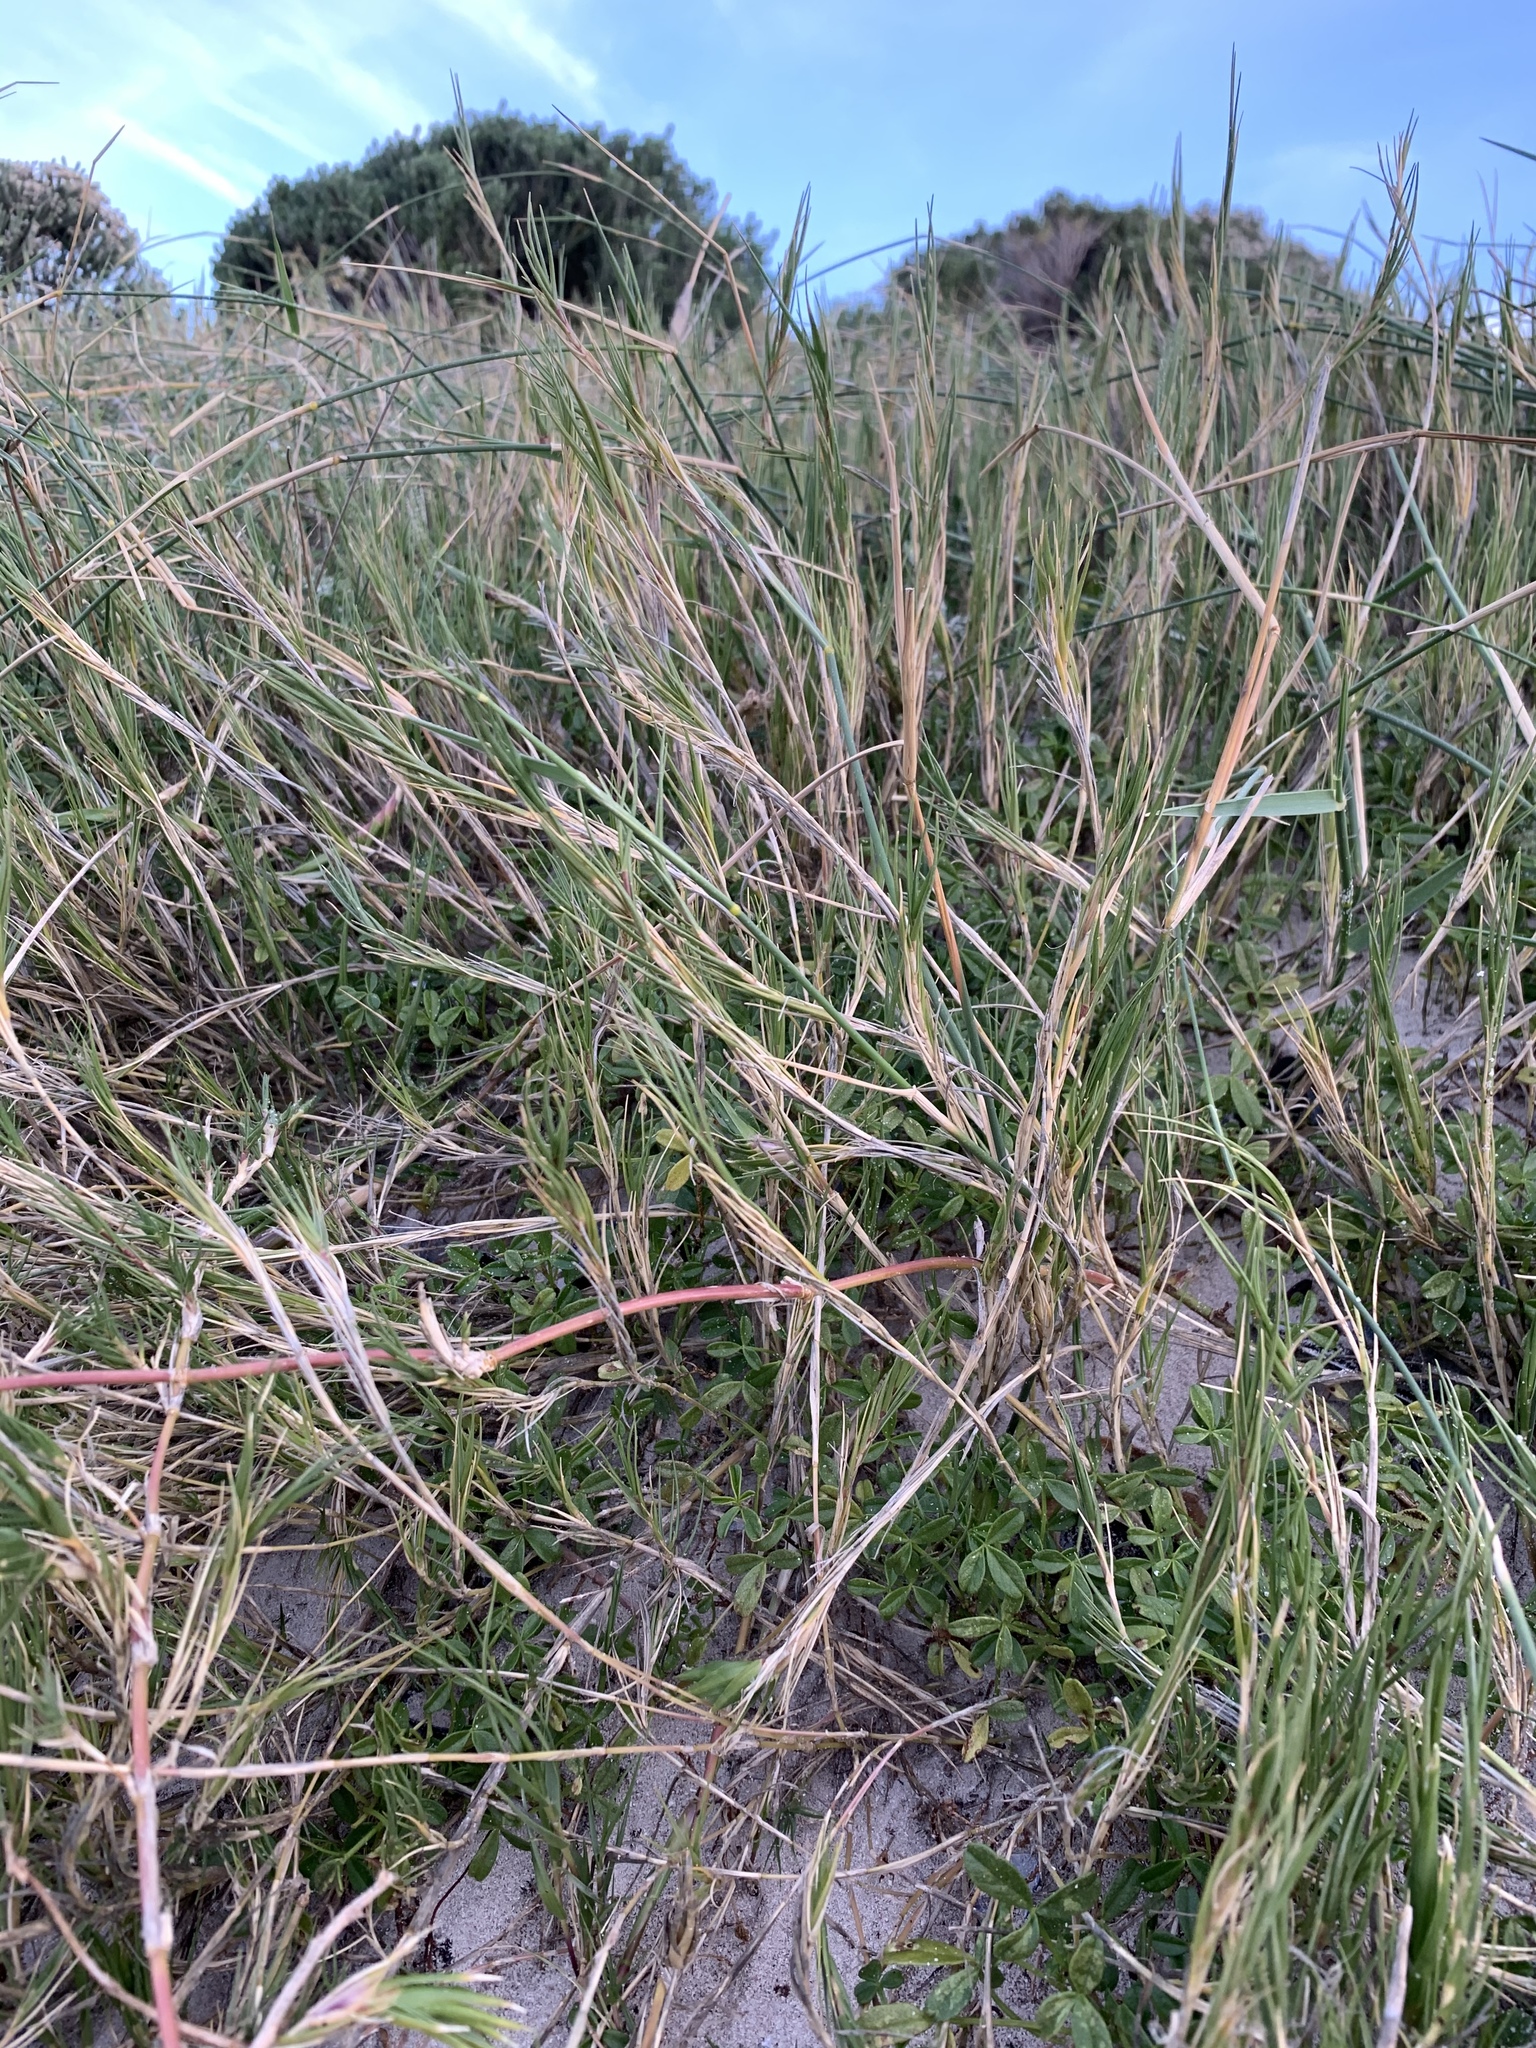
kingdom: Plantae
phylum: Tracheophyta
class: Liliopsida
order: Poales
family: Poaceae
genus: Cynodon
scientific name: Cynodon dactylon
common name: Bermuda grass
